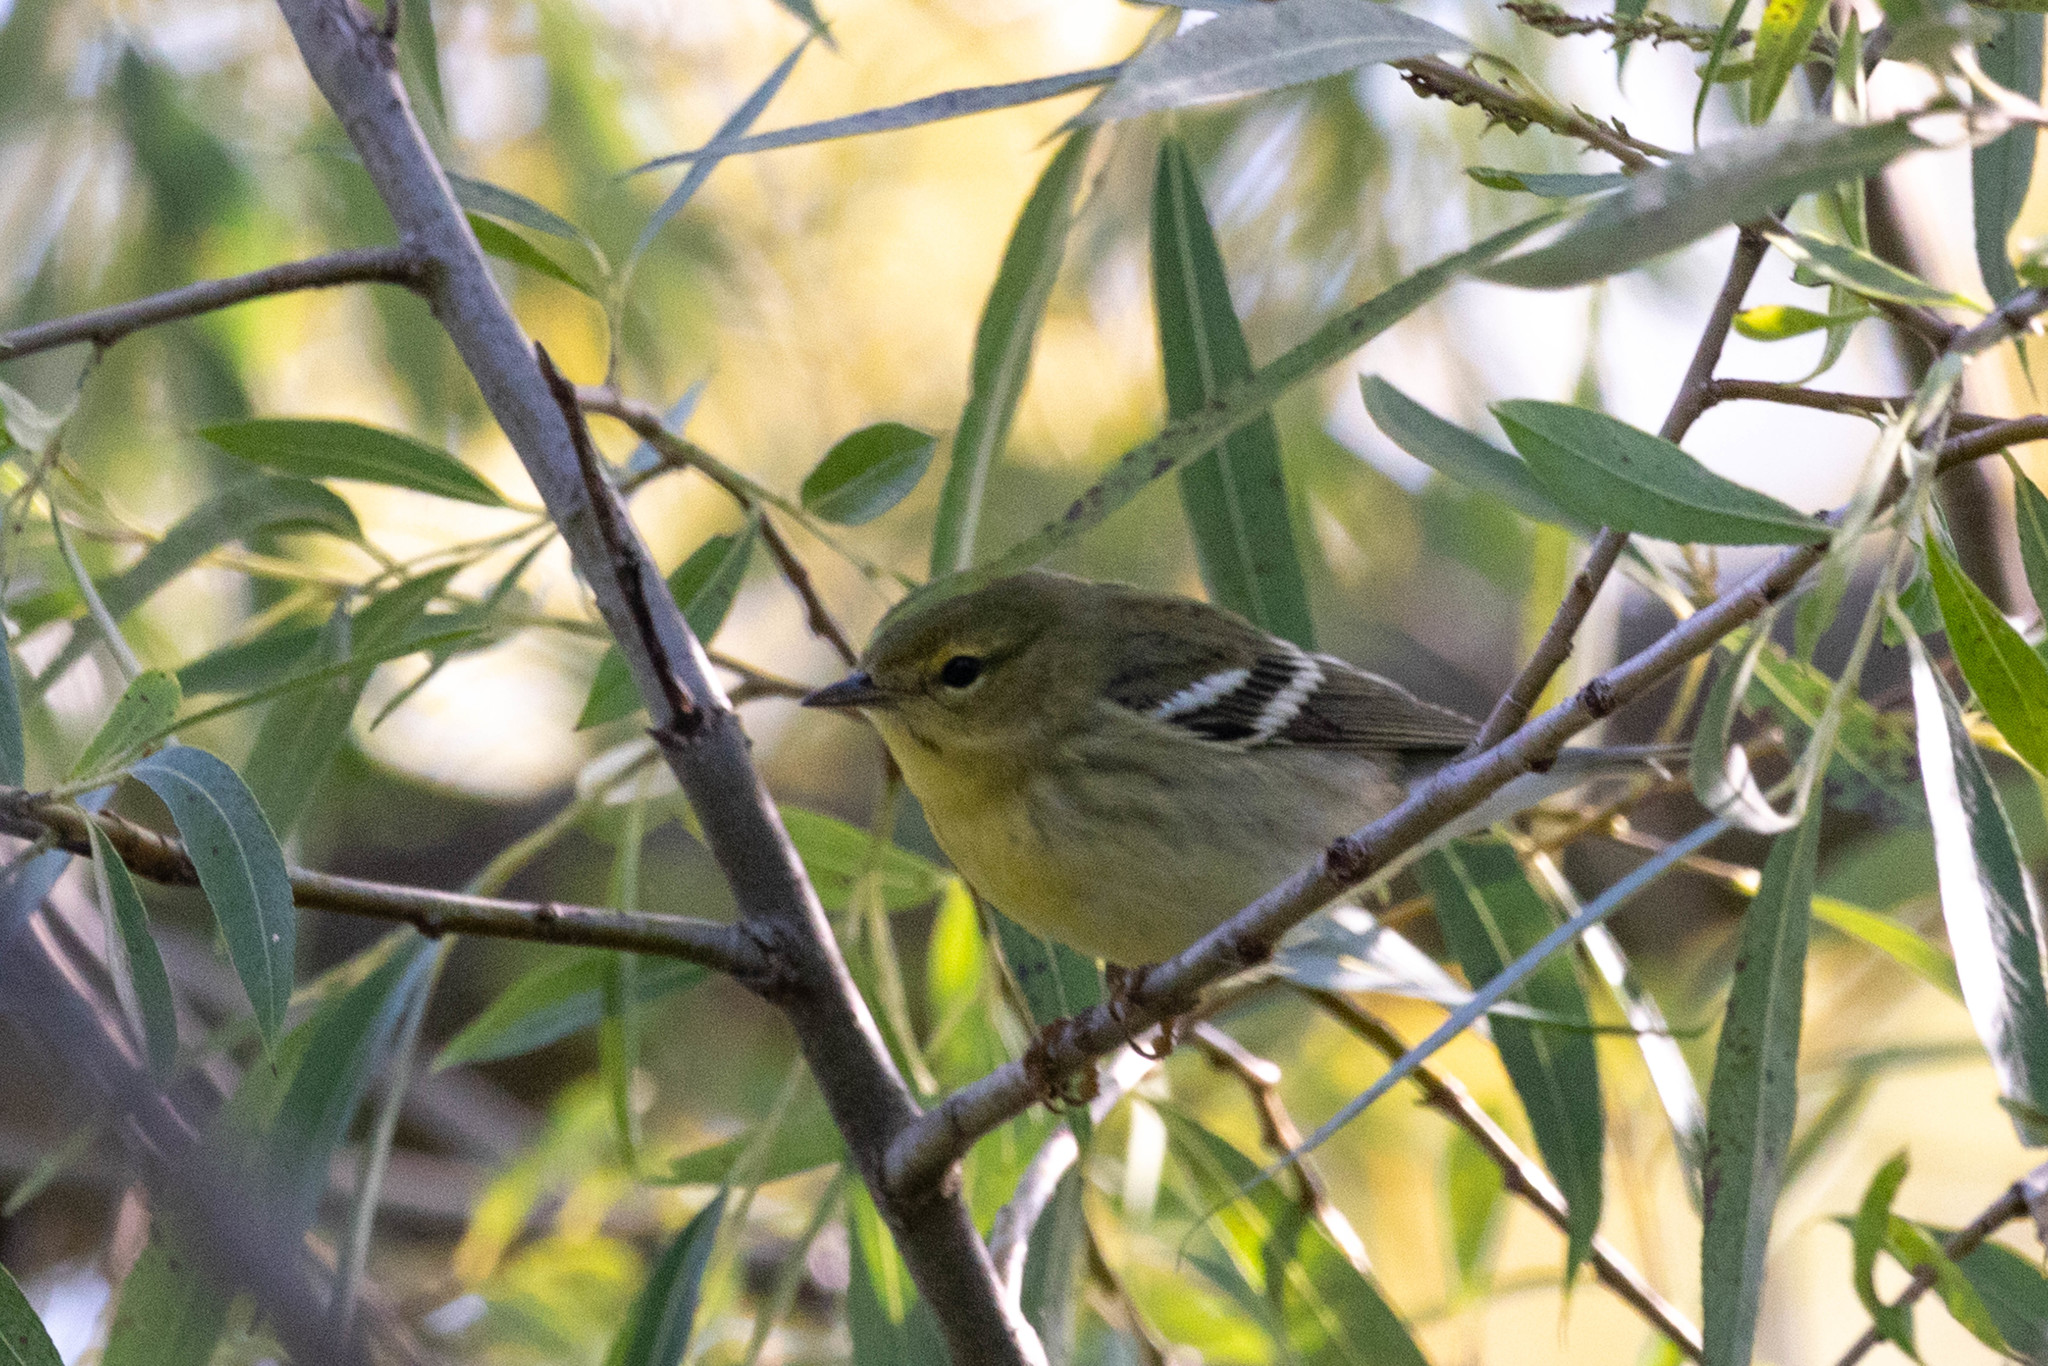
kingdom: Animalia
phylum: Chordata
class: Aves
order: Passeriformes
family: Parulidae
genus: Setophaga
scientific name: Setophaga striata
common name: Blackpoll warbler
